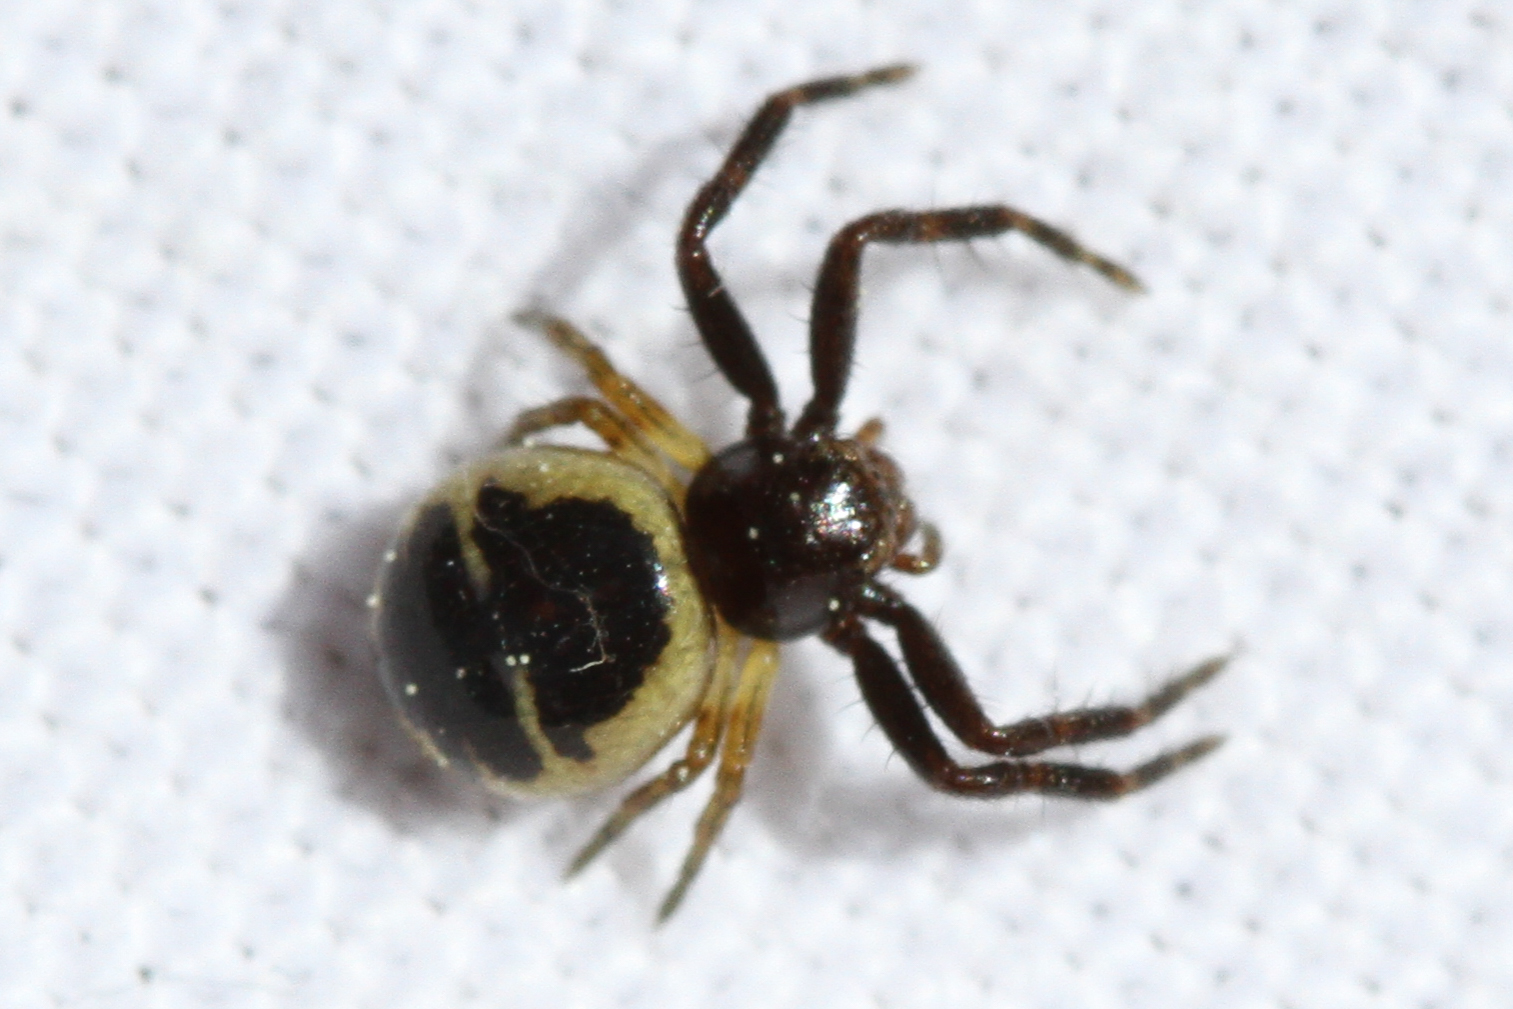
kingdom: Animalia
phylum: Arthropoda
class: Arachnida
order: Araneae
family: Thomisidae
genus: Synema
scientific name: Synema globosum
